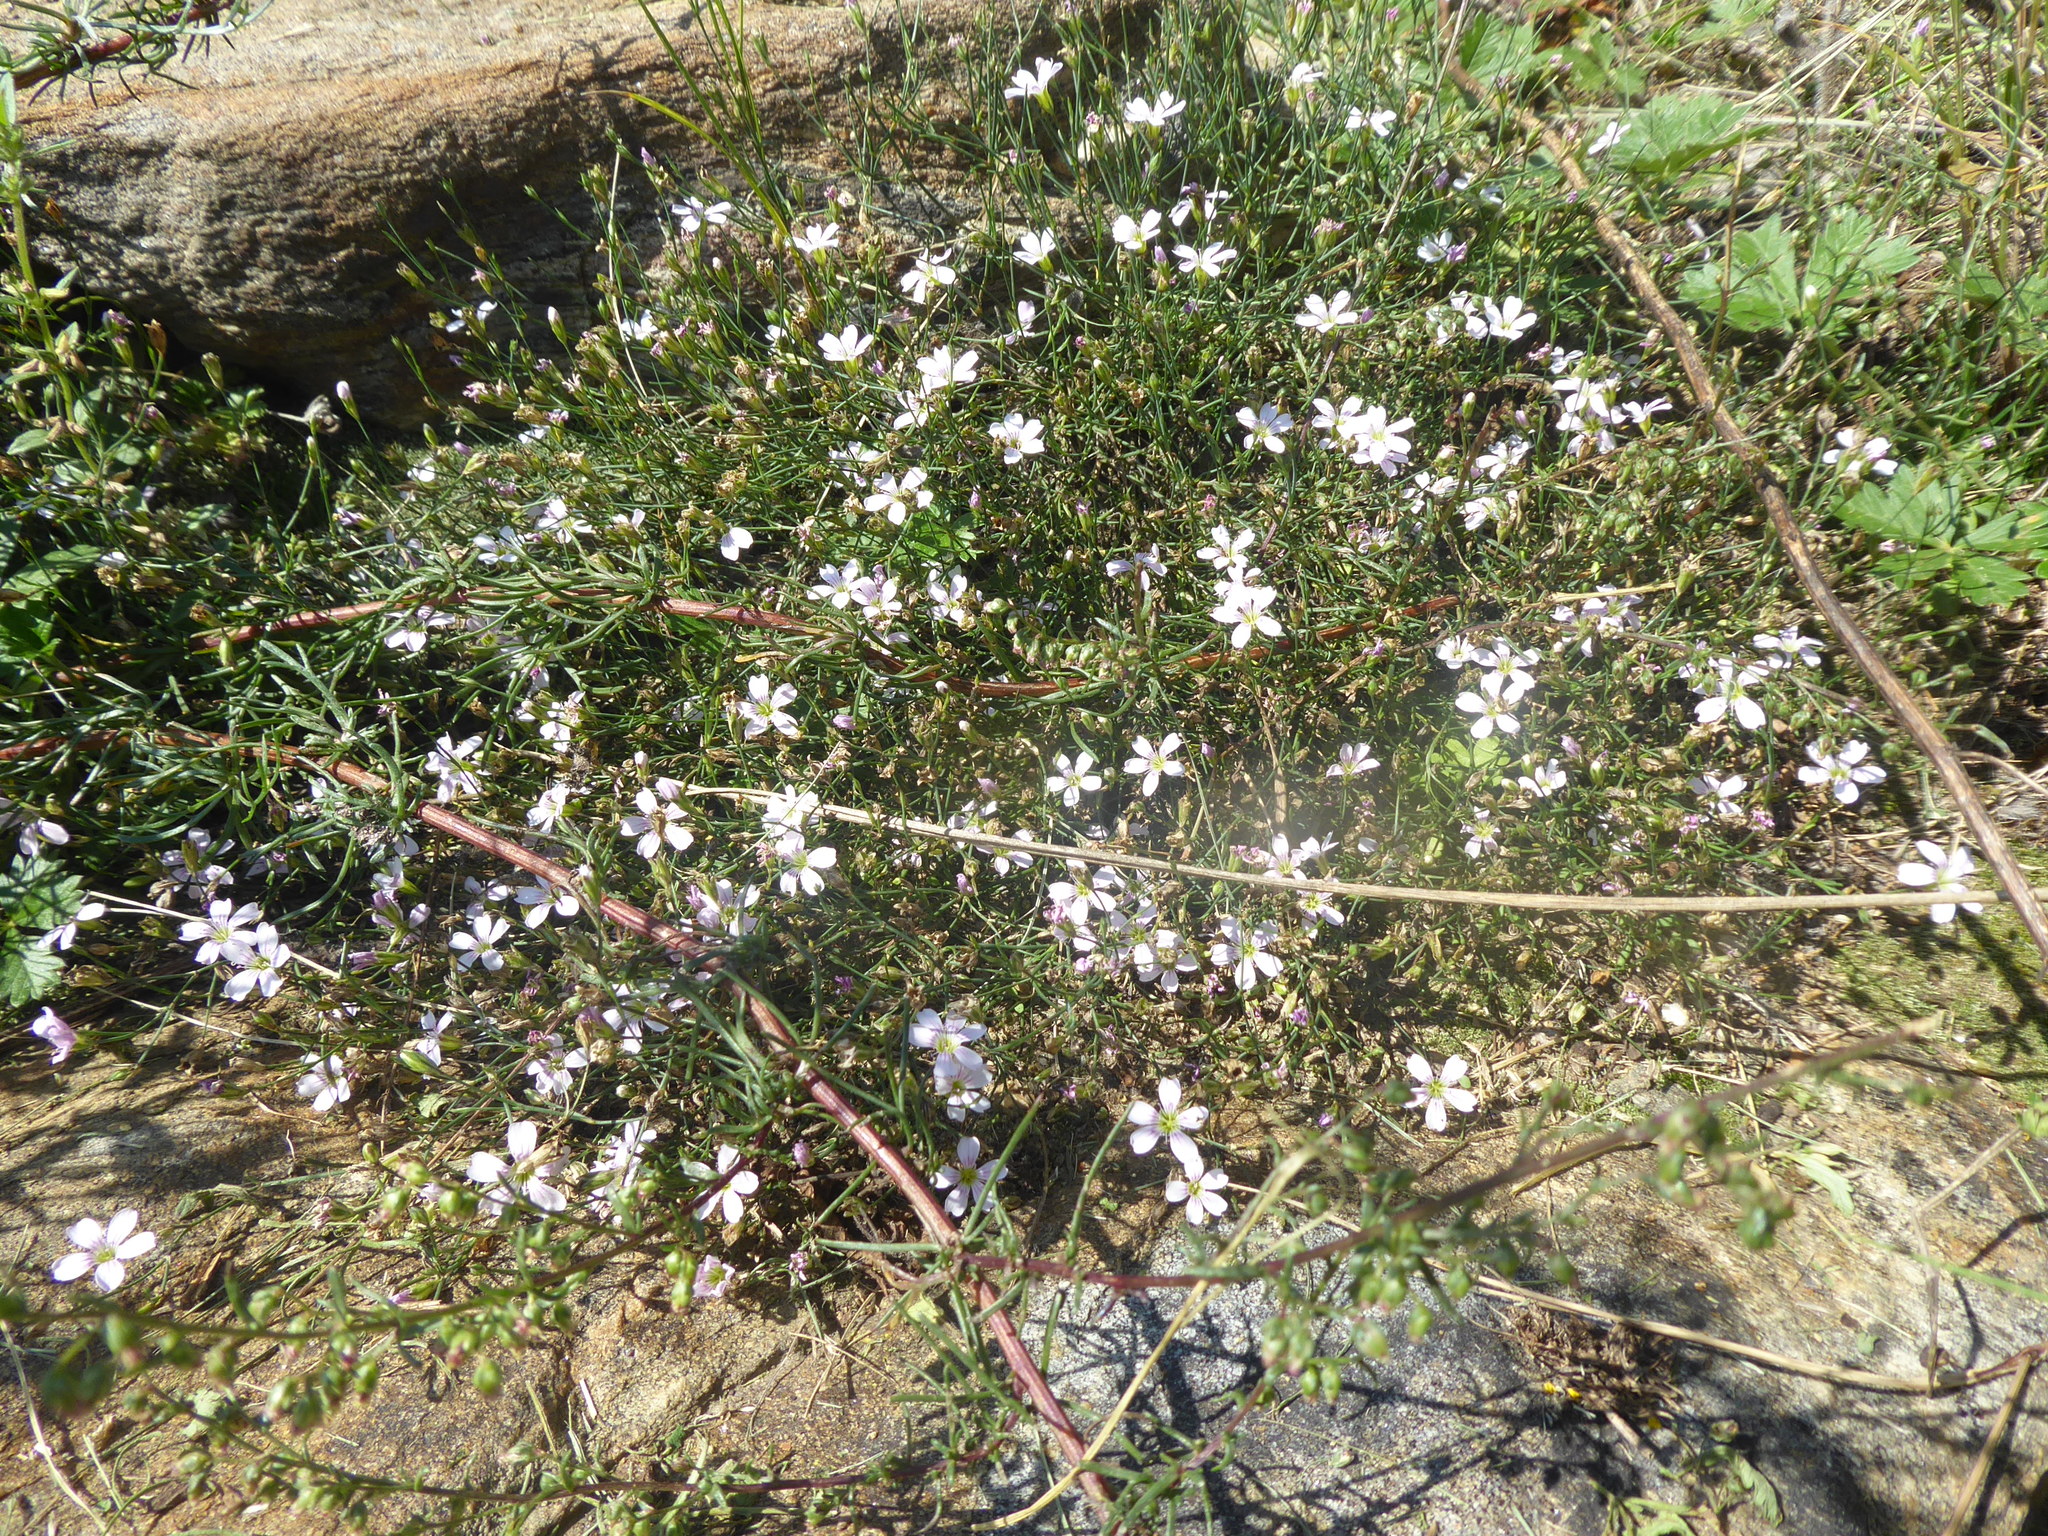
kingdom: Plantae
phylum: Tracheophyta
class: Magnoliopsida
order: Caryophyllales
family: Caryophyllaceae
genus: Petrorhagia
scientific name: Petrorhagia saxifraga
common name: Tunicflower
